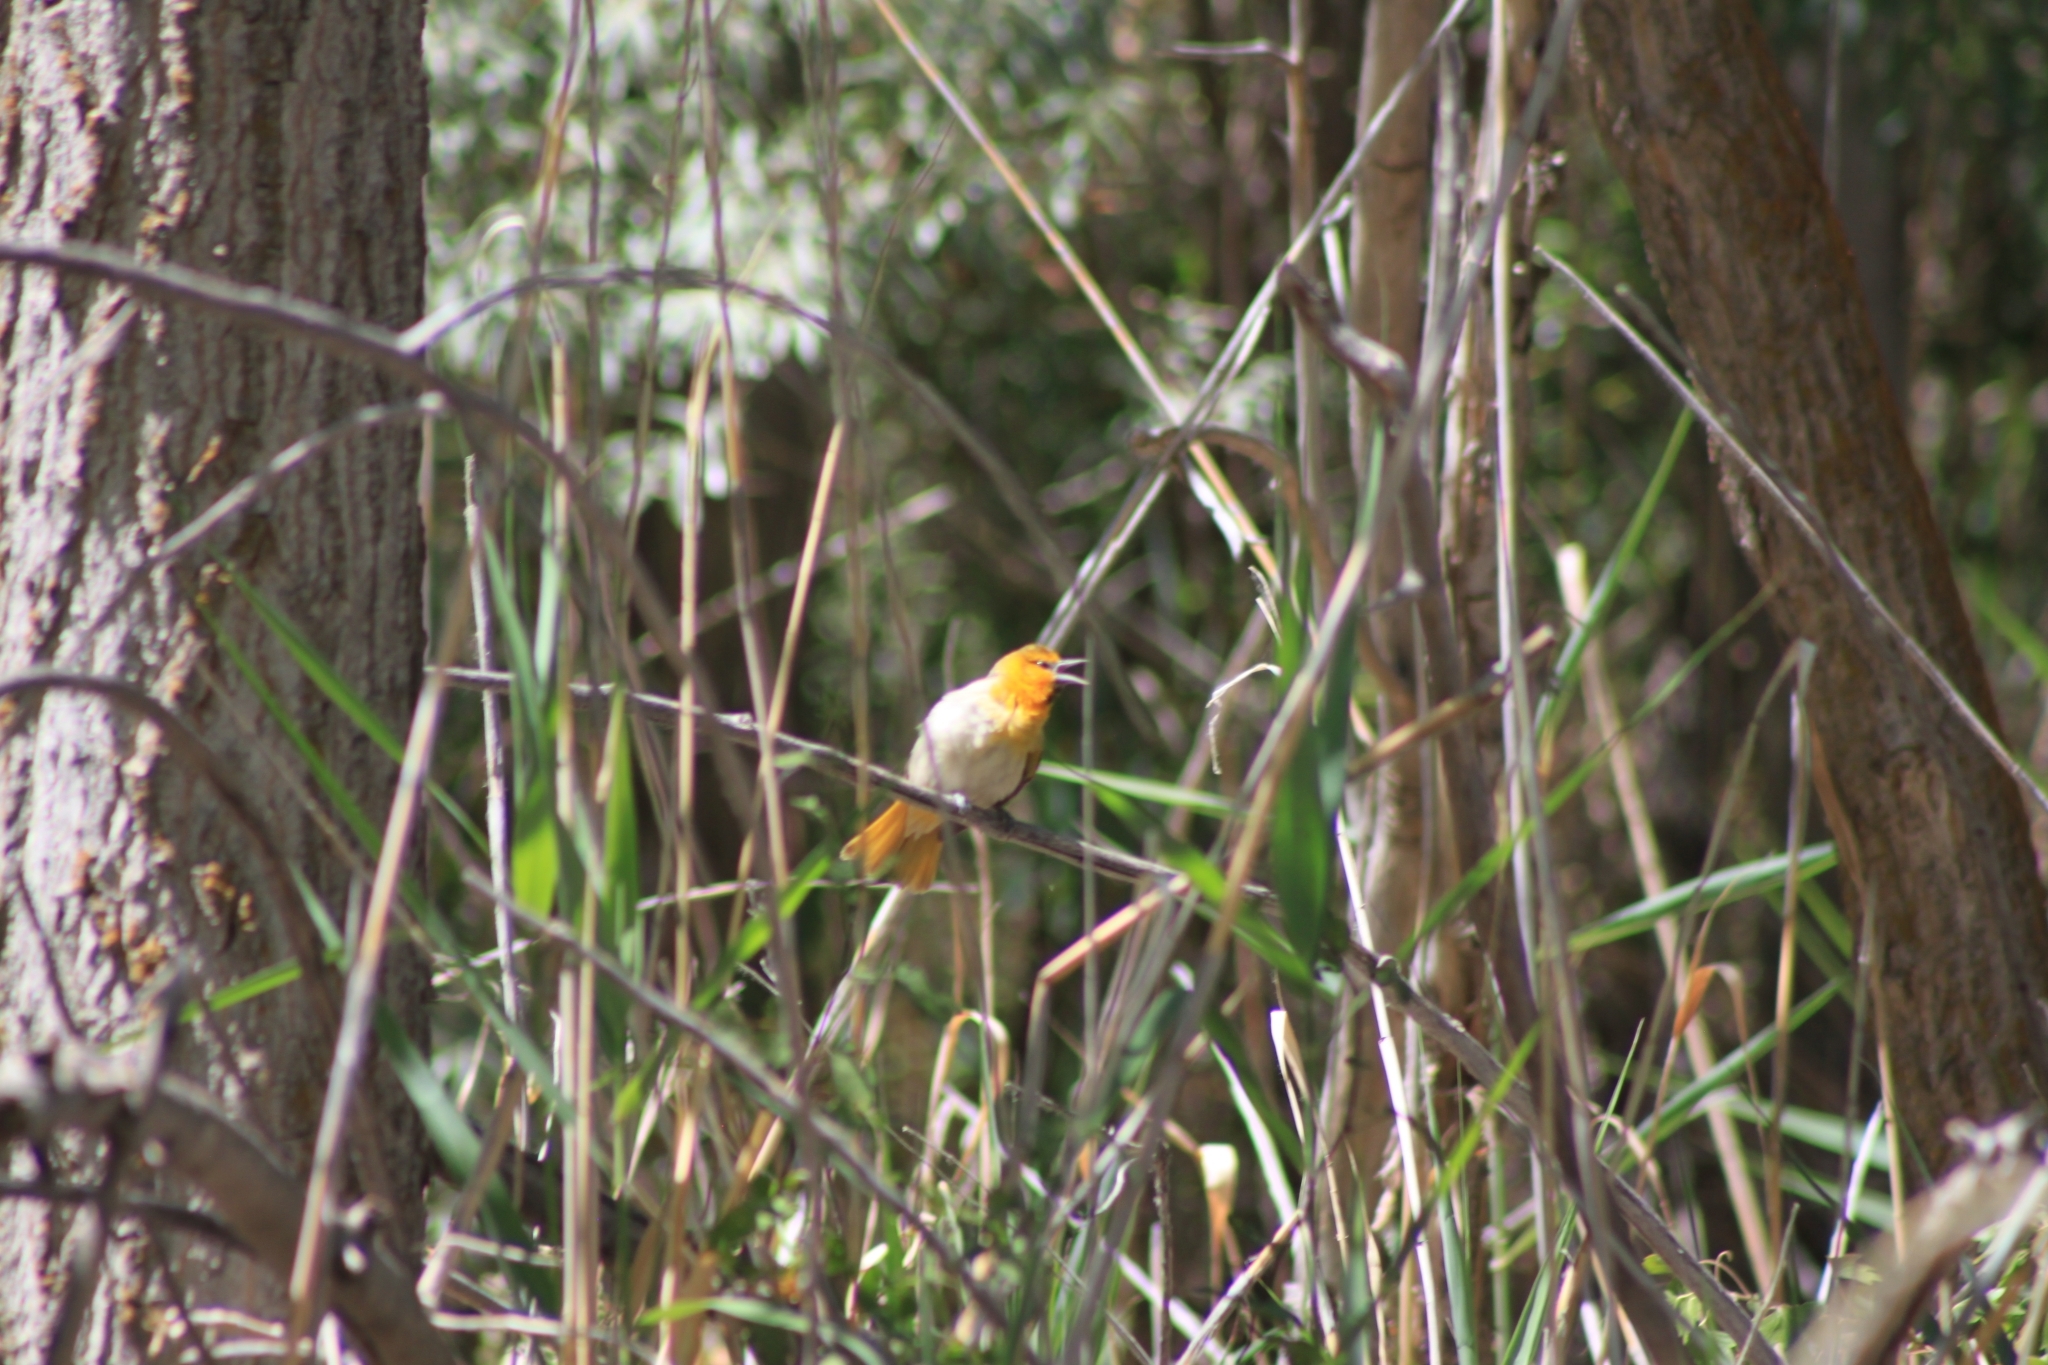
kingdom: Animalia
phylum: Chordata
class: Aves
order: Passeriformes
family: Icteridae
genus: Icterus
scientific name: Icterus bullockii
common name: Bullock's oriole
